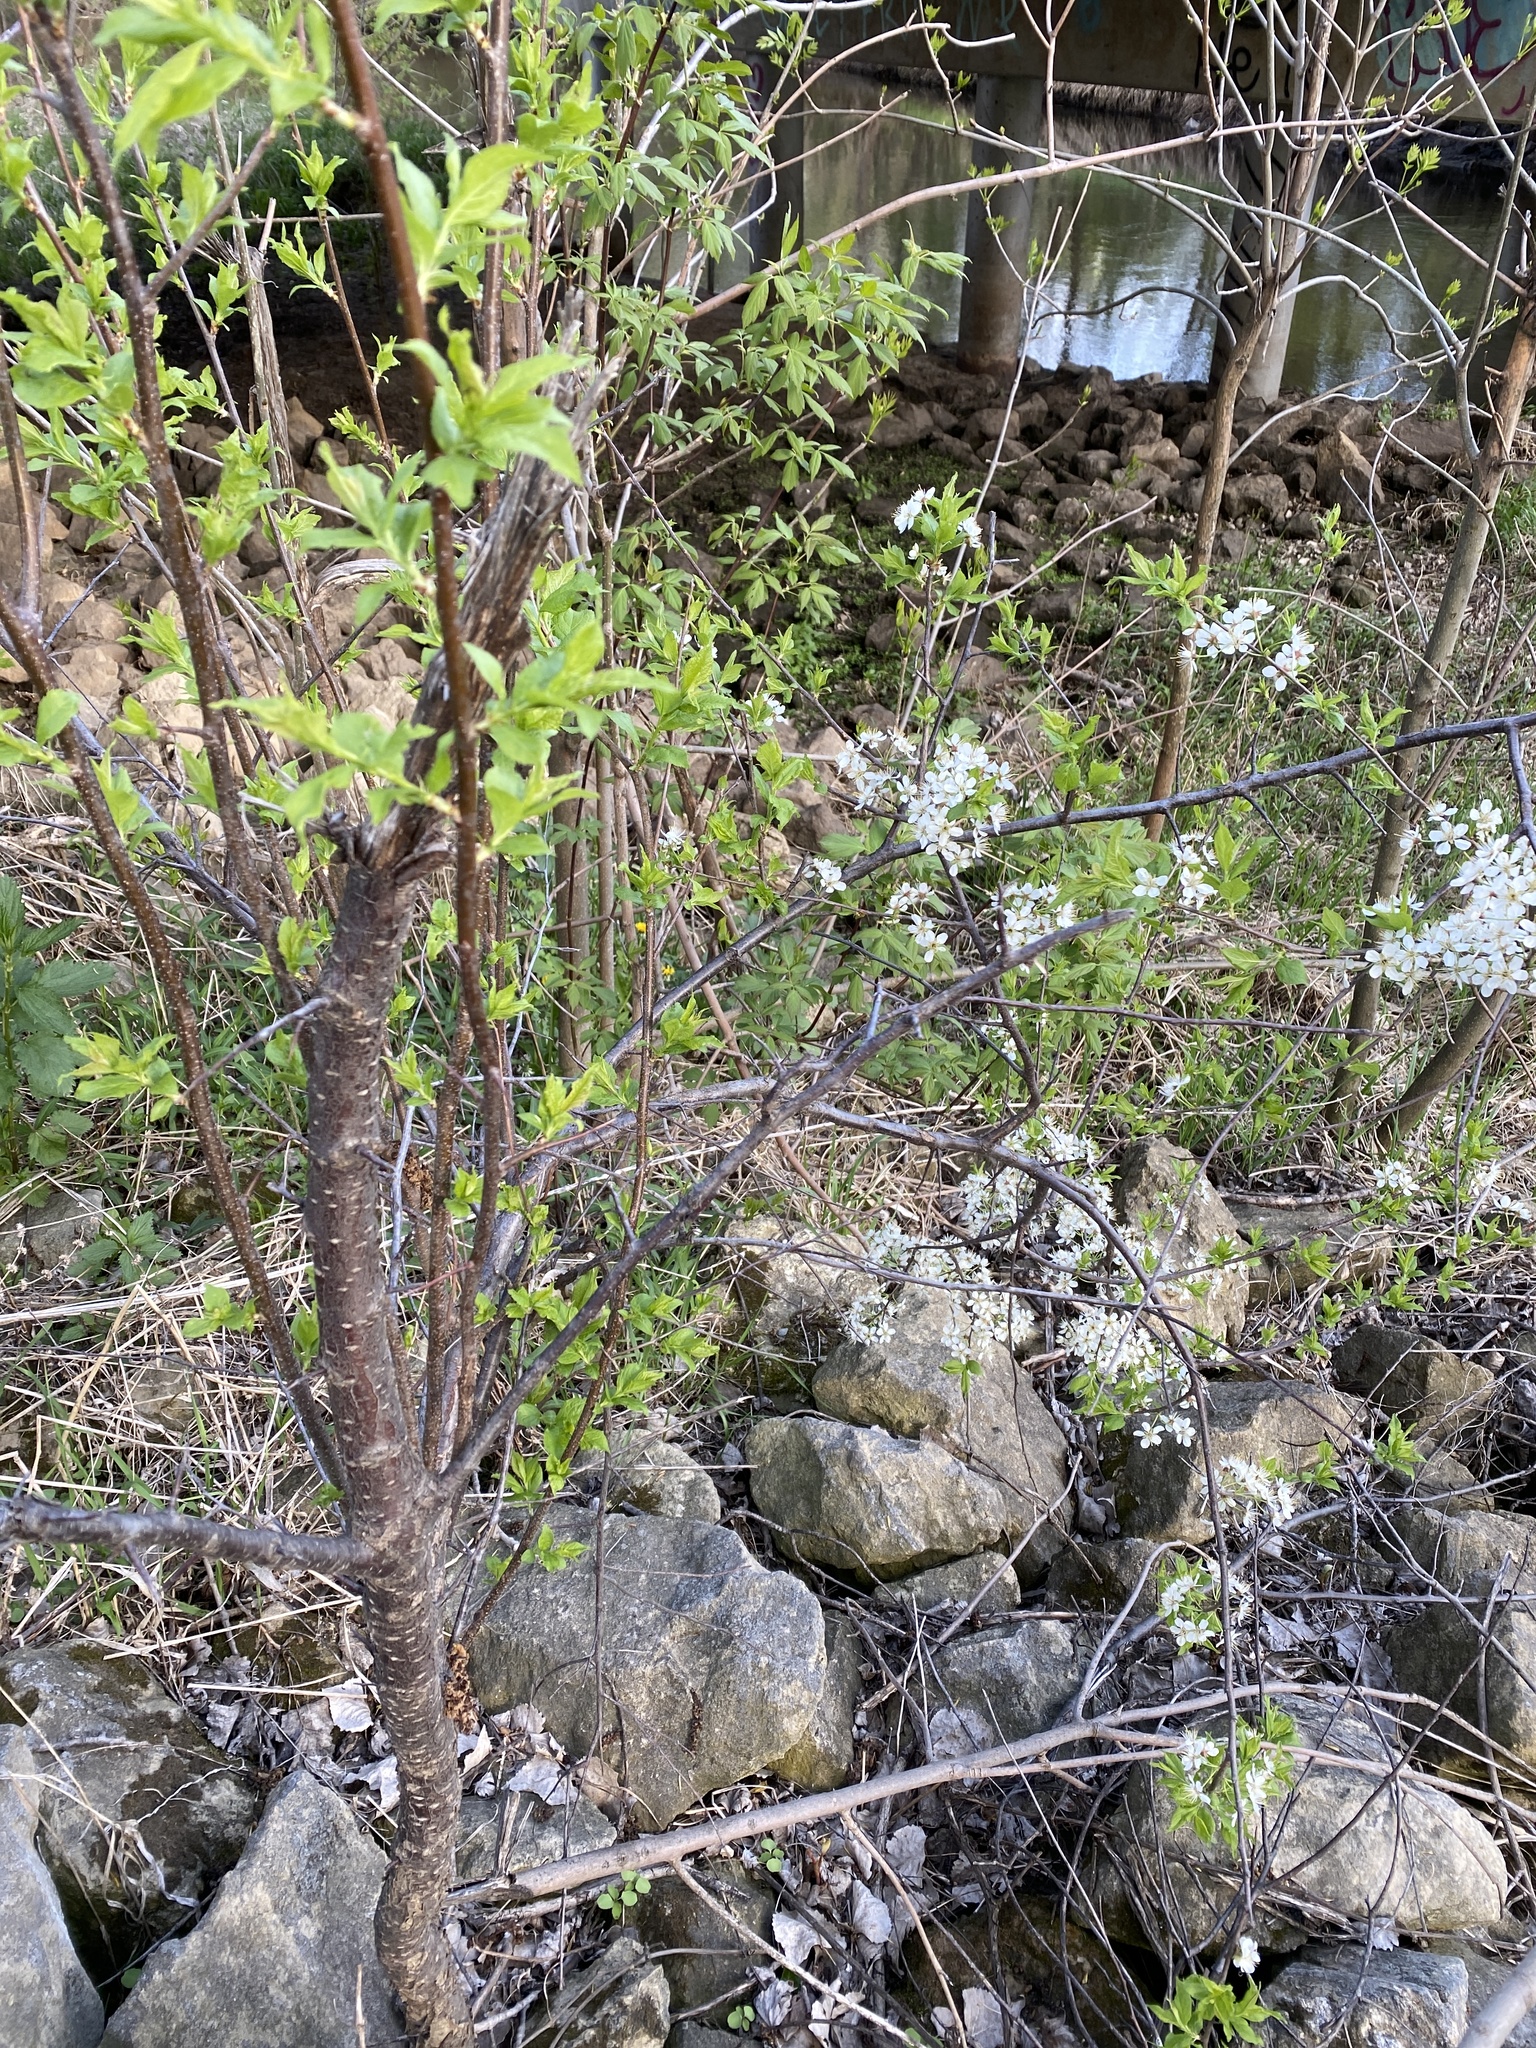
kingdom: Plantae
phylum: Tracheophyta
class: Magnoliopsida
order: Rosales
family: Rosaceae
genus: Prunus
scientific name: Prunus americana
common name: American plum
